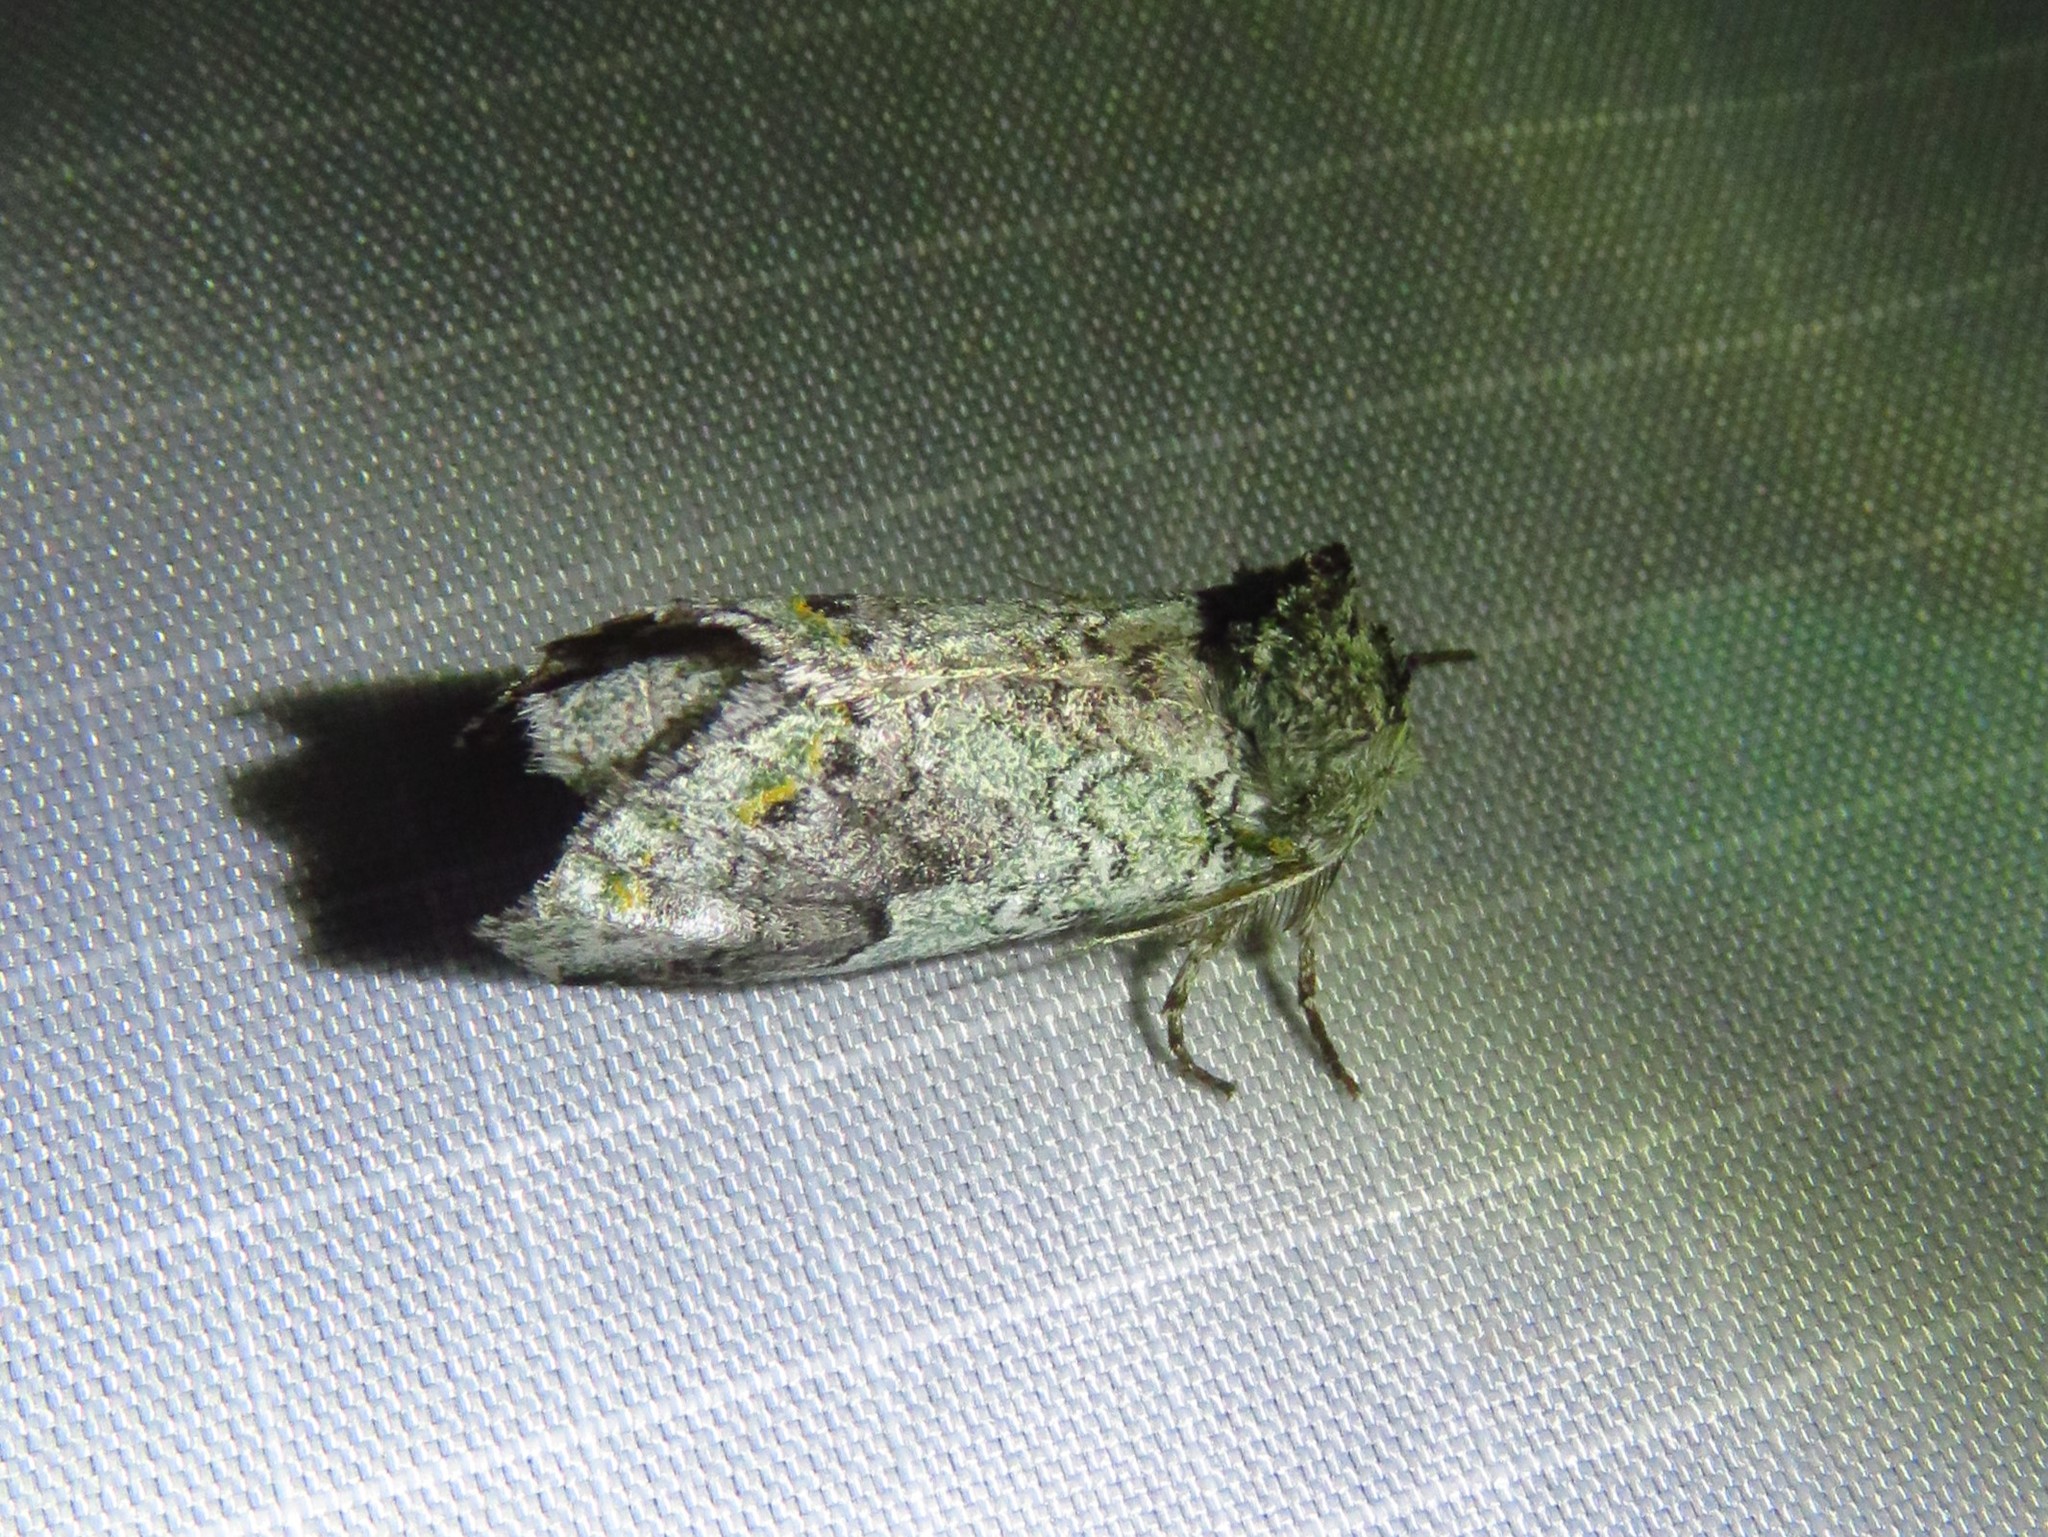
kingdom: Animalia
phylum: Arthropoda
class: Insecta
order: Lepidoptera
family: Notodontidae
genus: Litodonta
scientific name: Litodonta hydromeli
